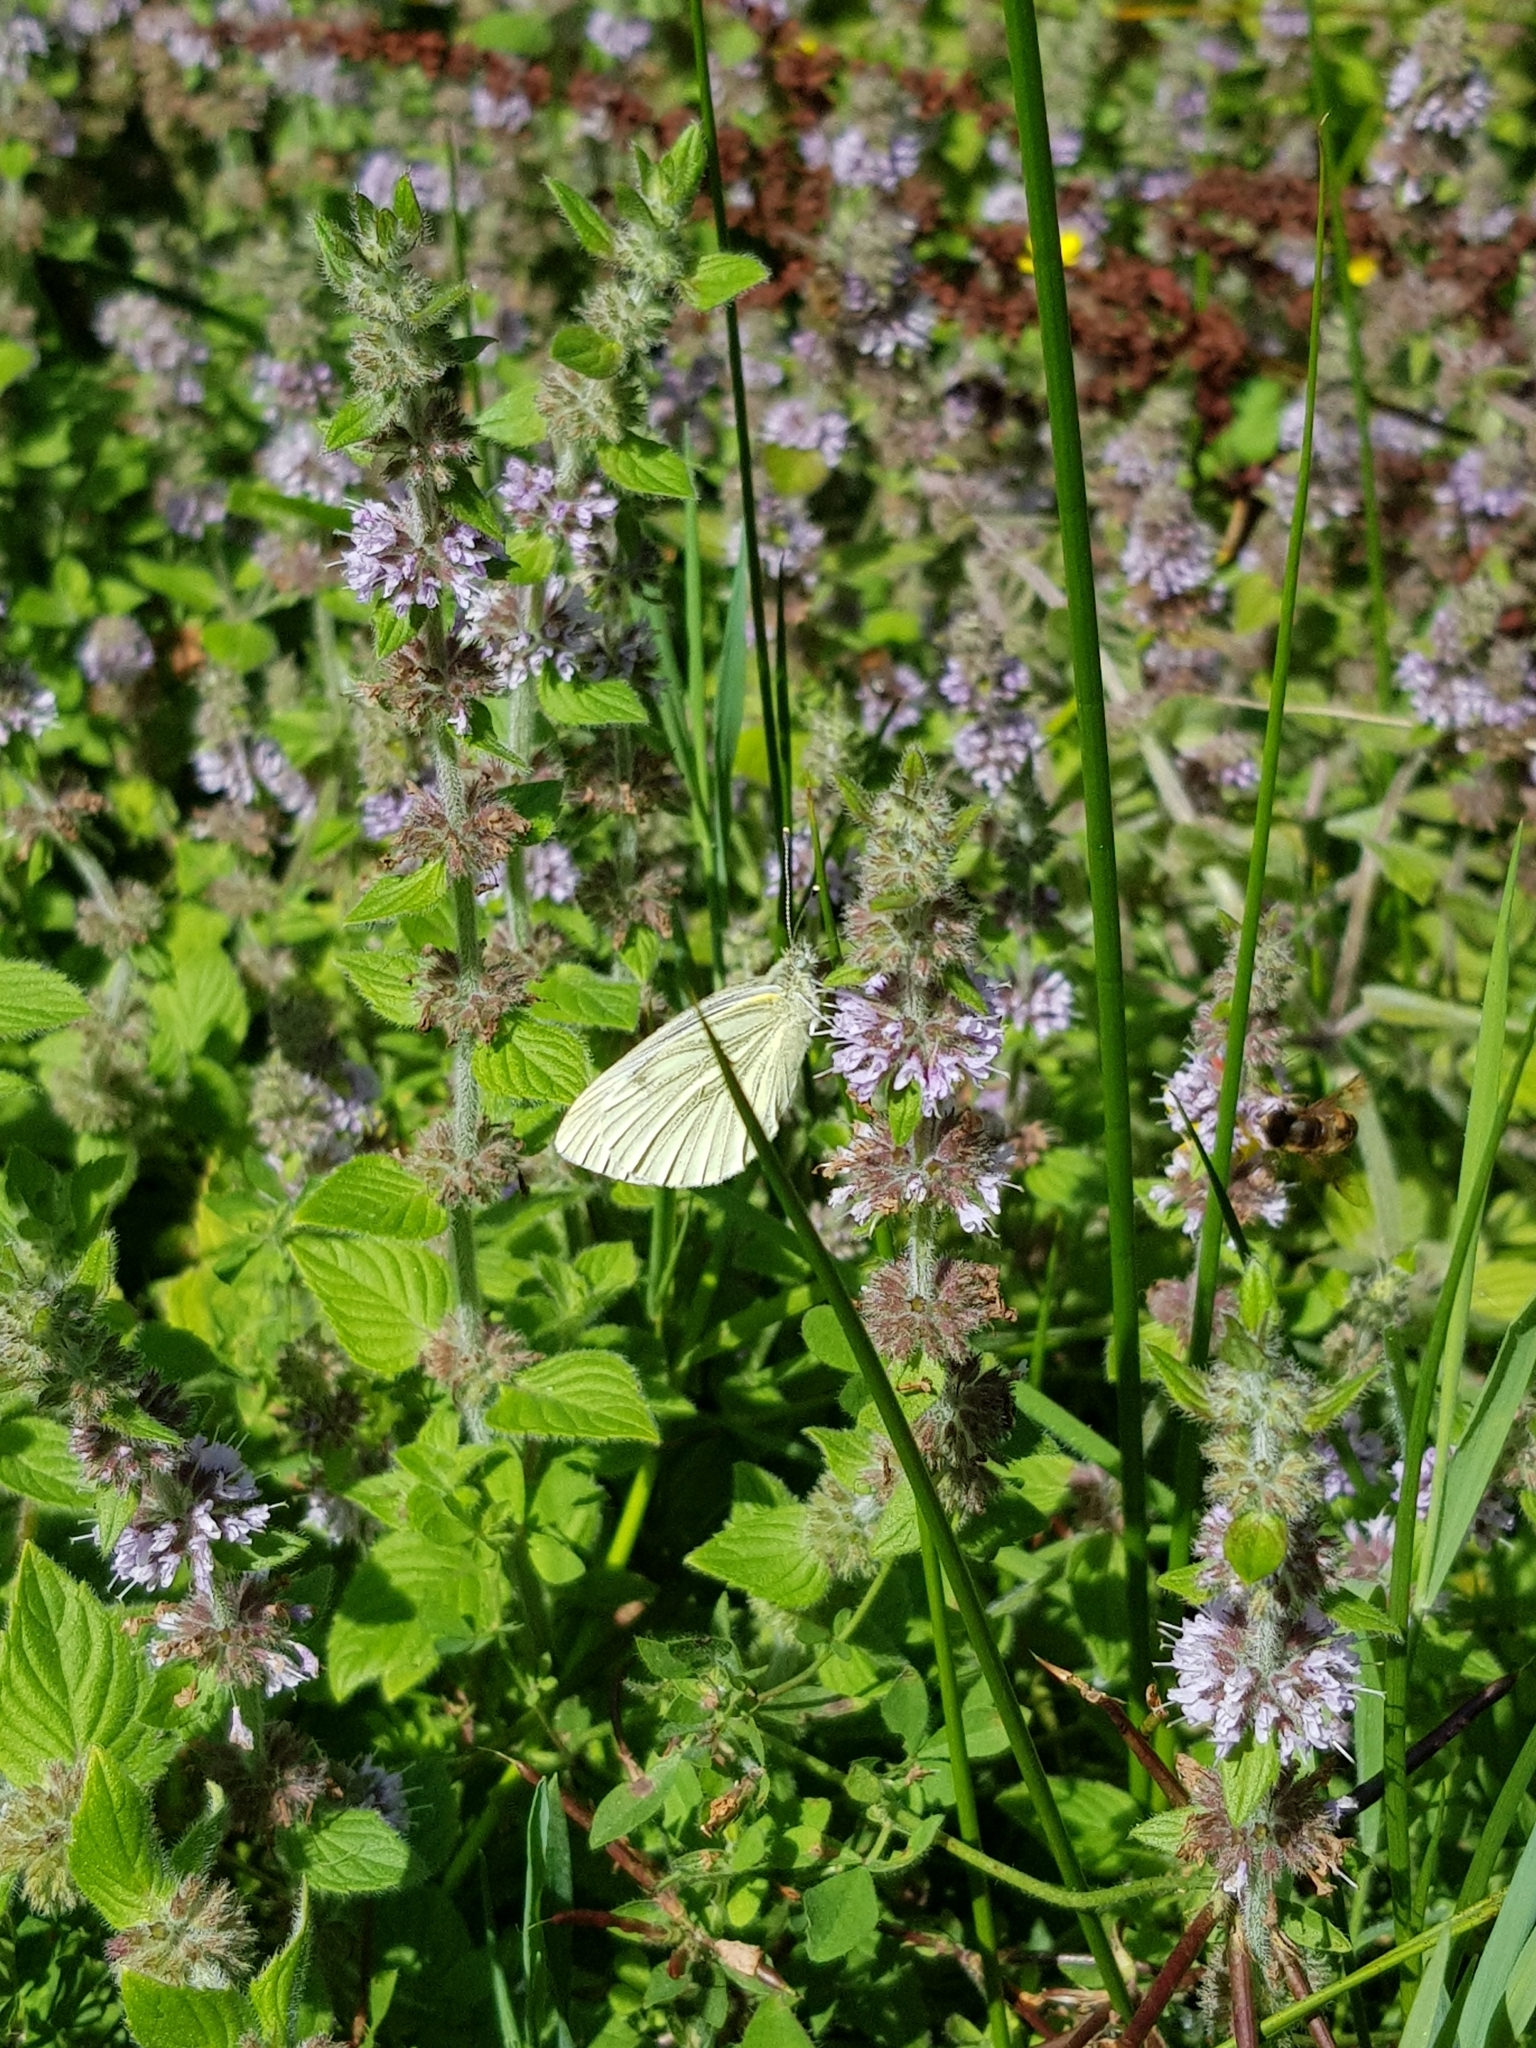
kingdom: Animalia
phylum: Arthropoda
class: Insecta
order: Lepidoptera
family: Pieridae
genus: Pieris
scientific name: Pieris napi
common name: Green-veined white
